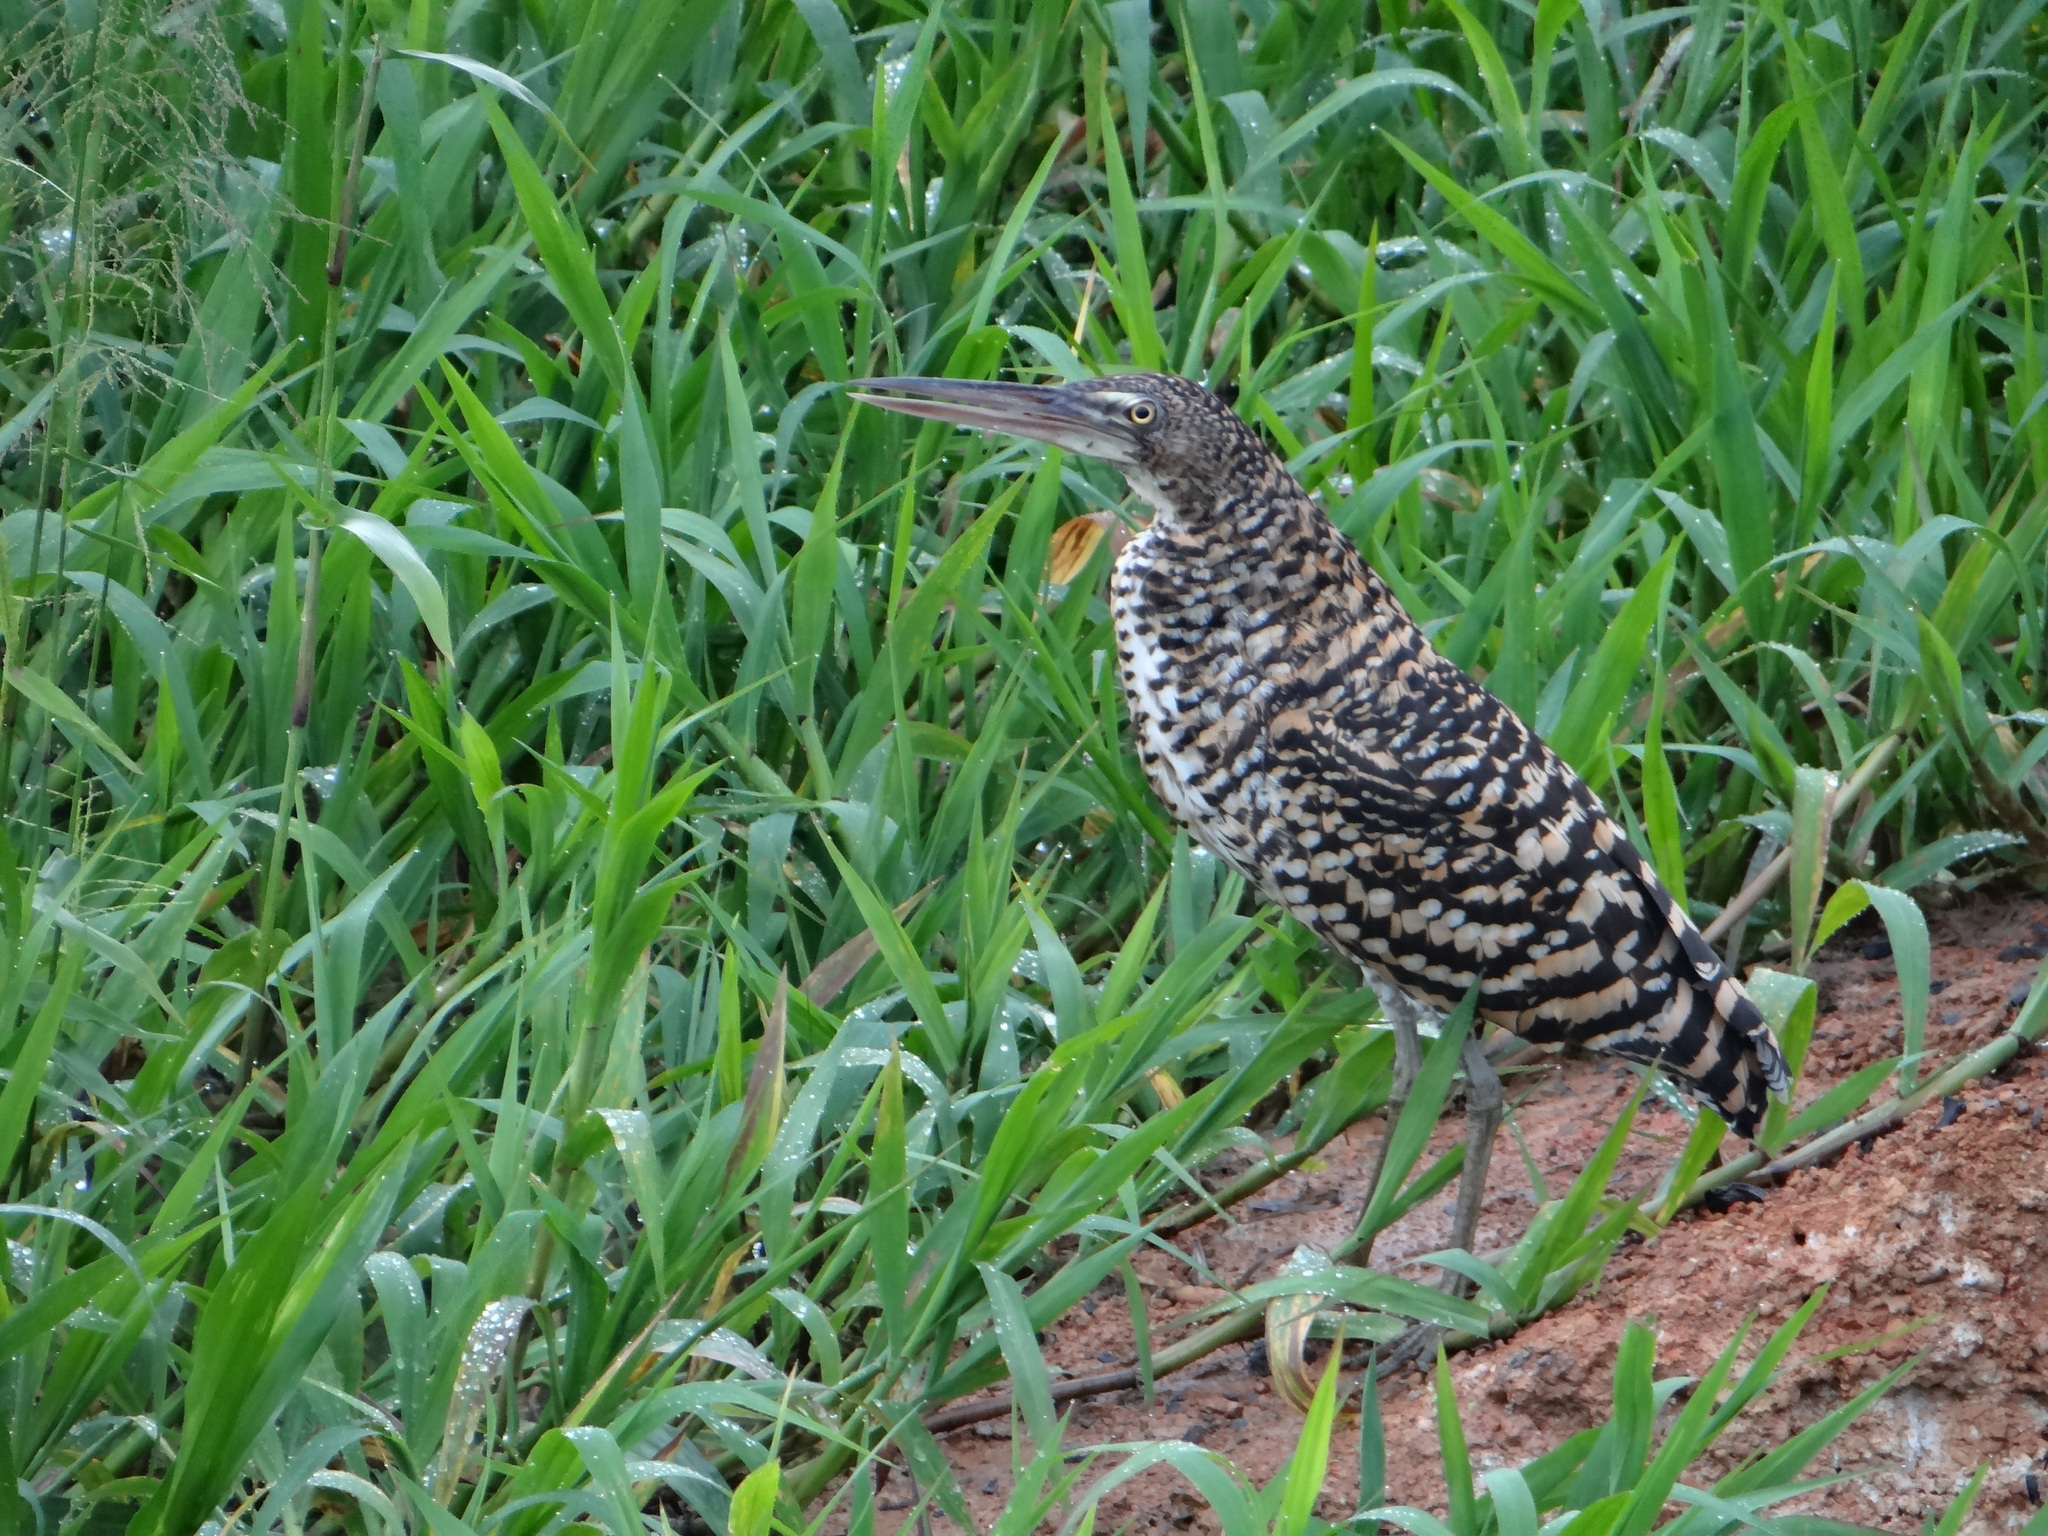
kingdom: Animalia
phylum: Chordata
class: Aves
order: Pelecaniformes
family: Ardeidae
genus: Tigrisoma
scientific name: Tigrisoma lineatum
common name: Rufescent tiger-heron
